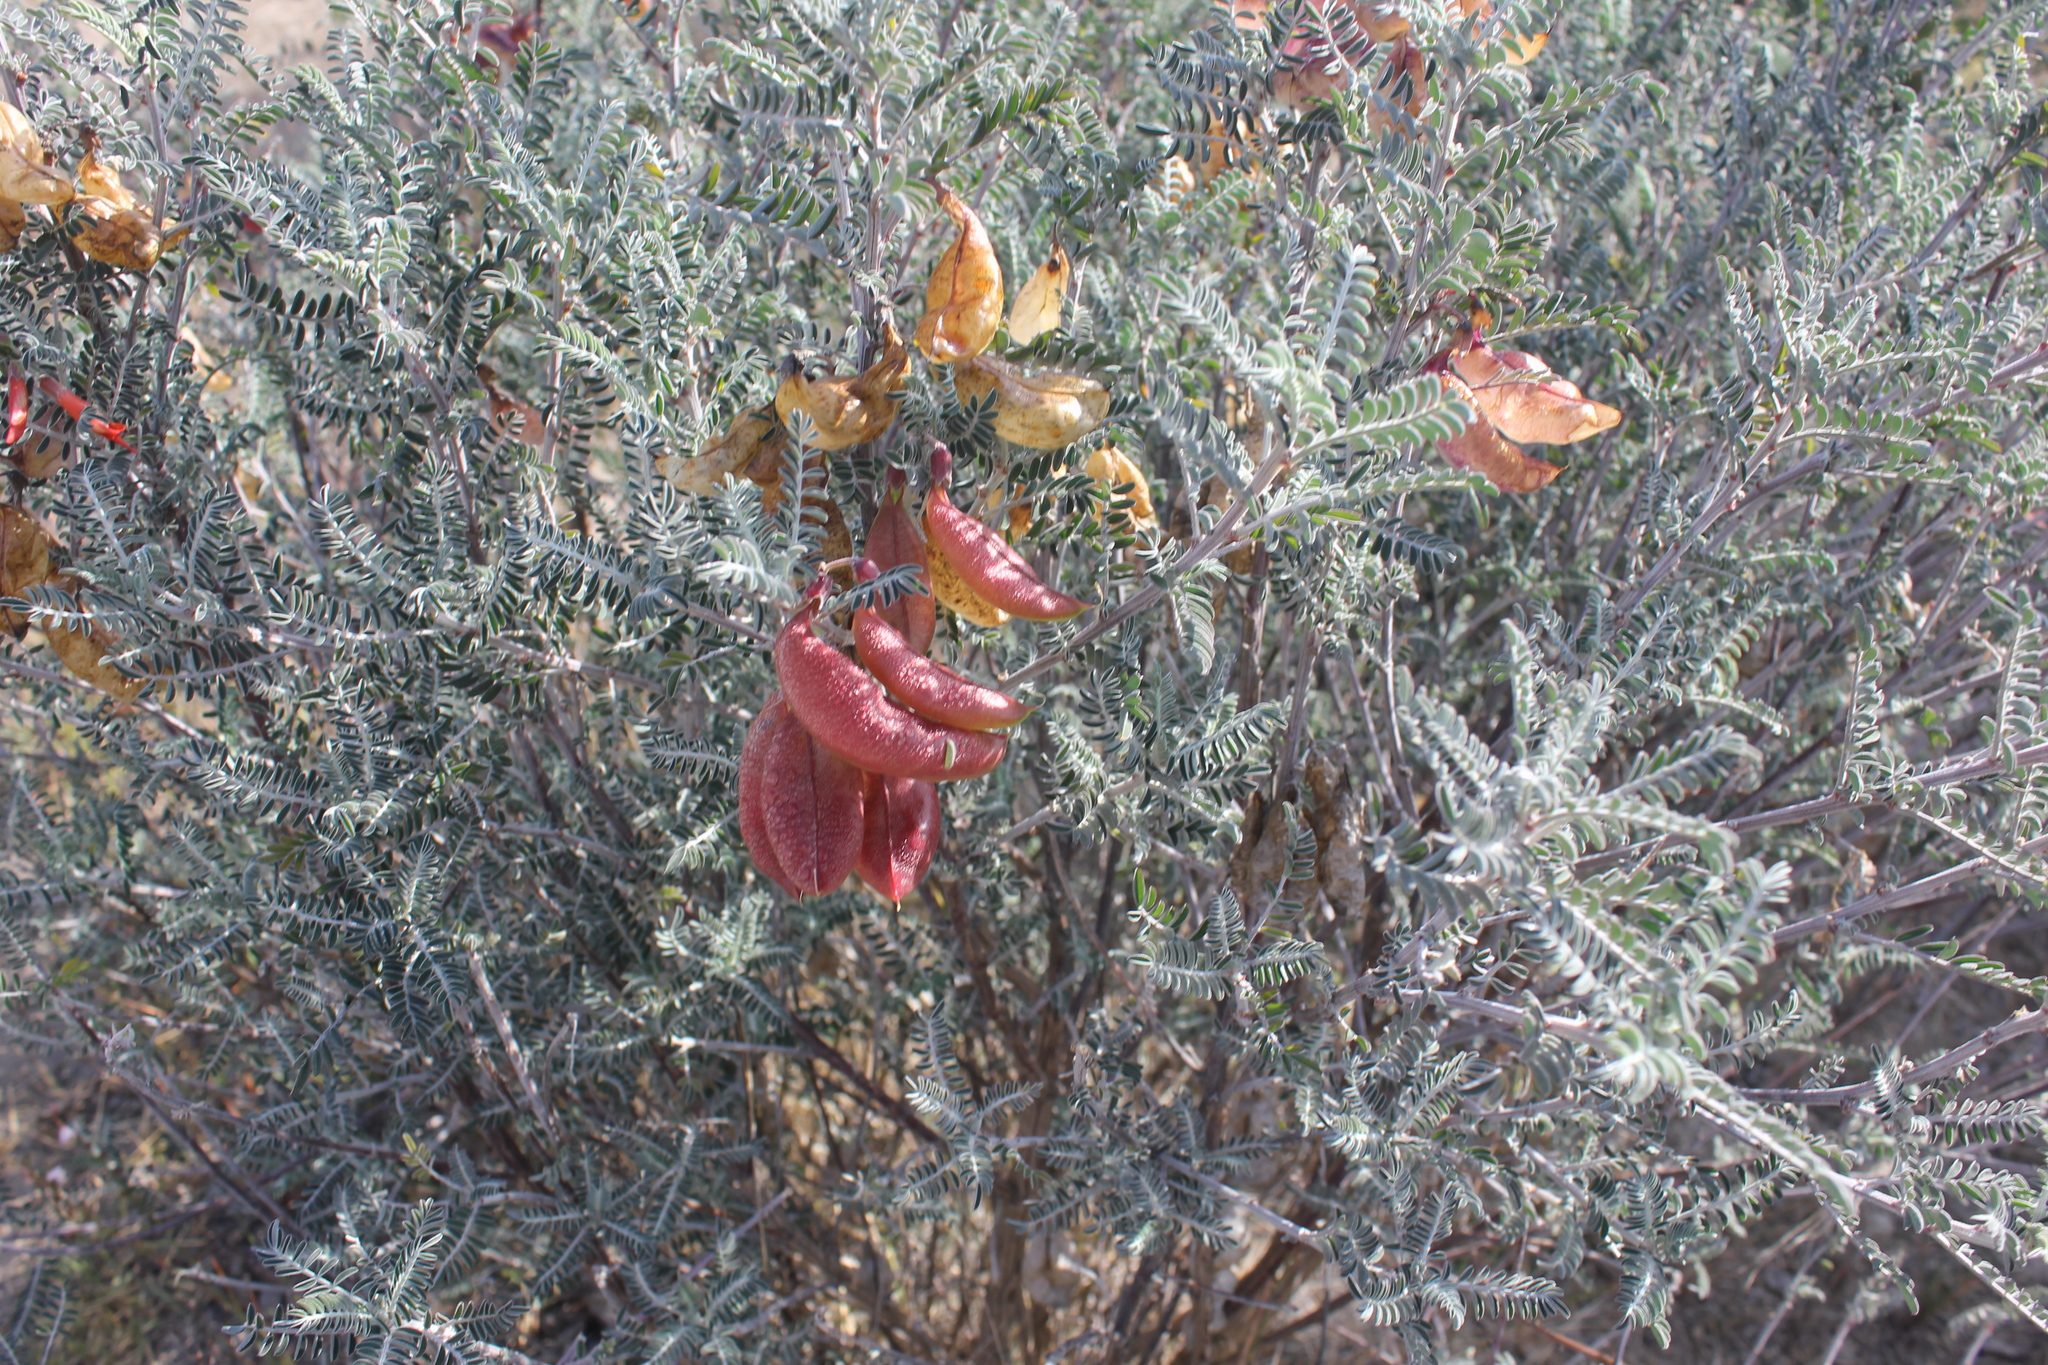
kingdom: Plantae
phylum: Tracheophyta
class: Magnoliopsida
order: Fabales
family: Fabaceae
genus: Lessertia
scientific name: Lessertia frutescens
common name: Balloon-pea
